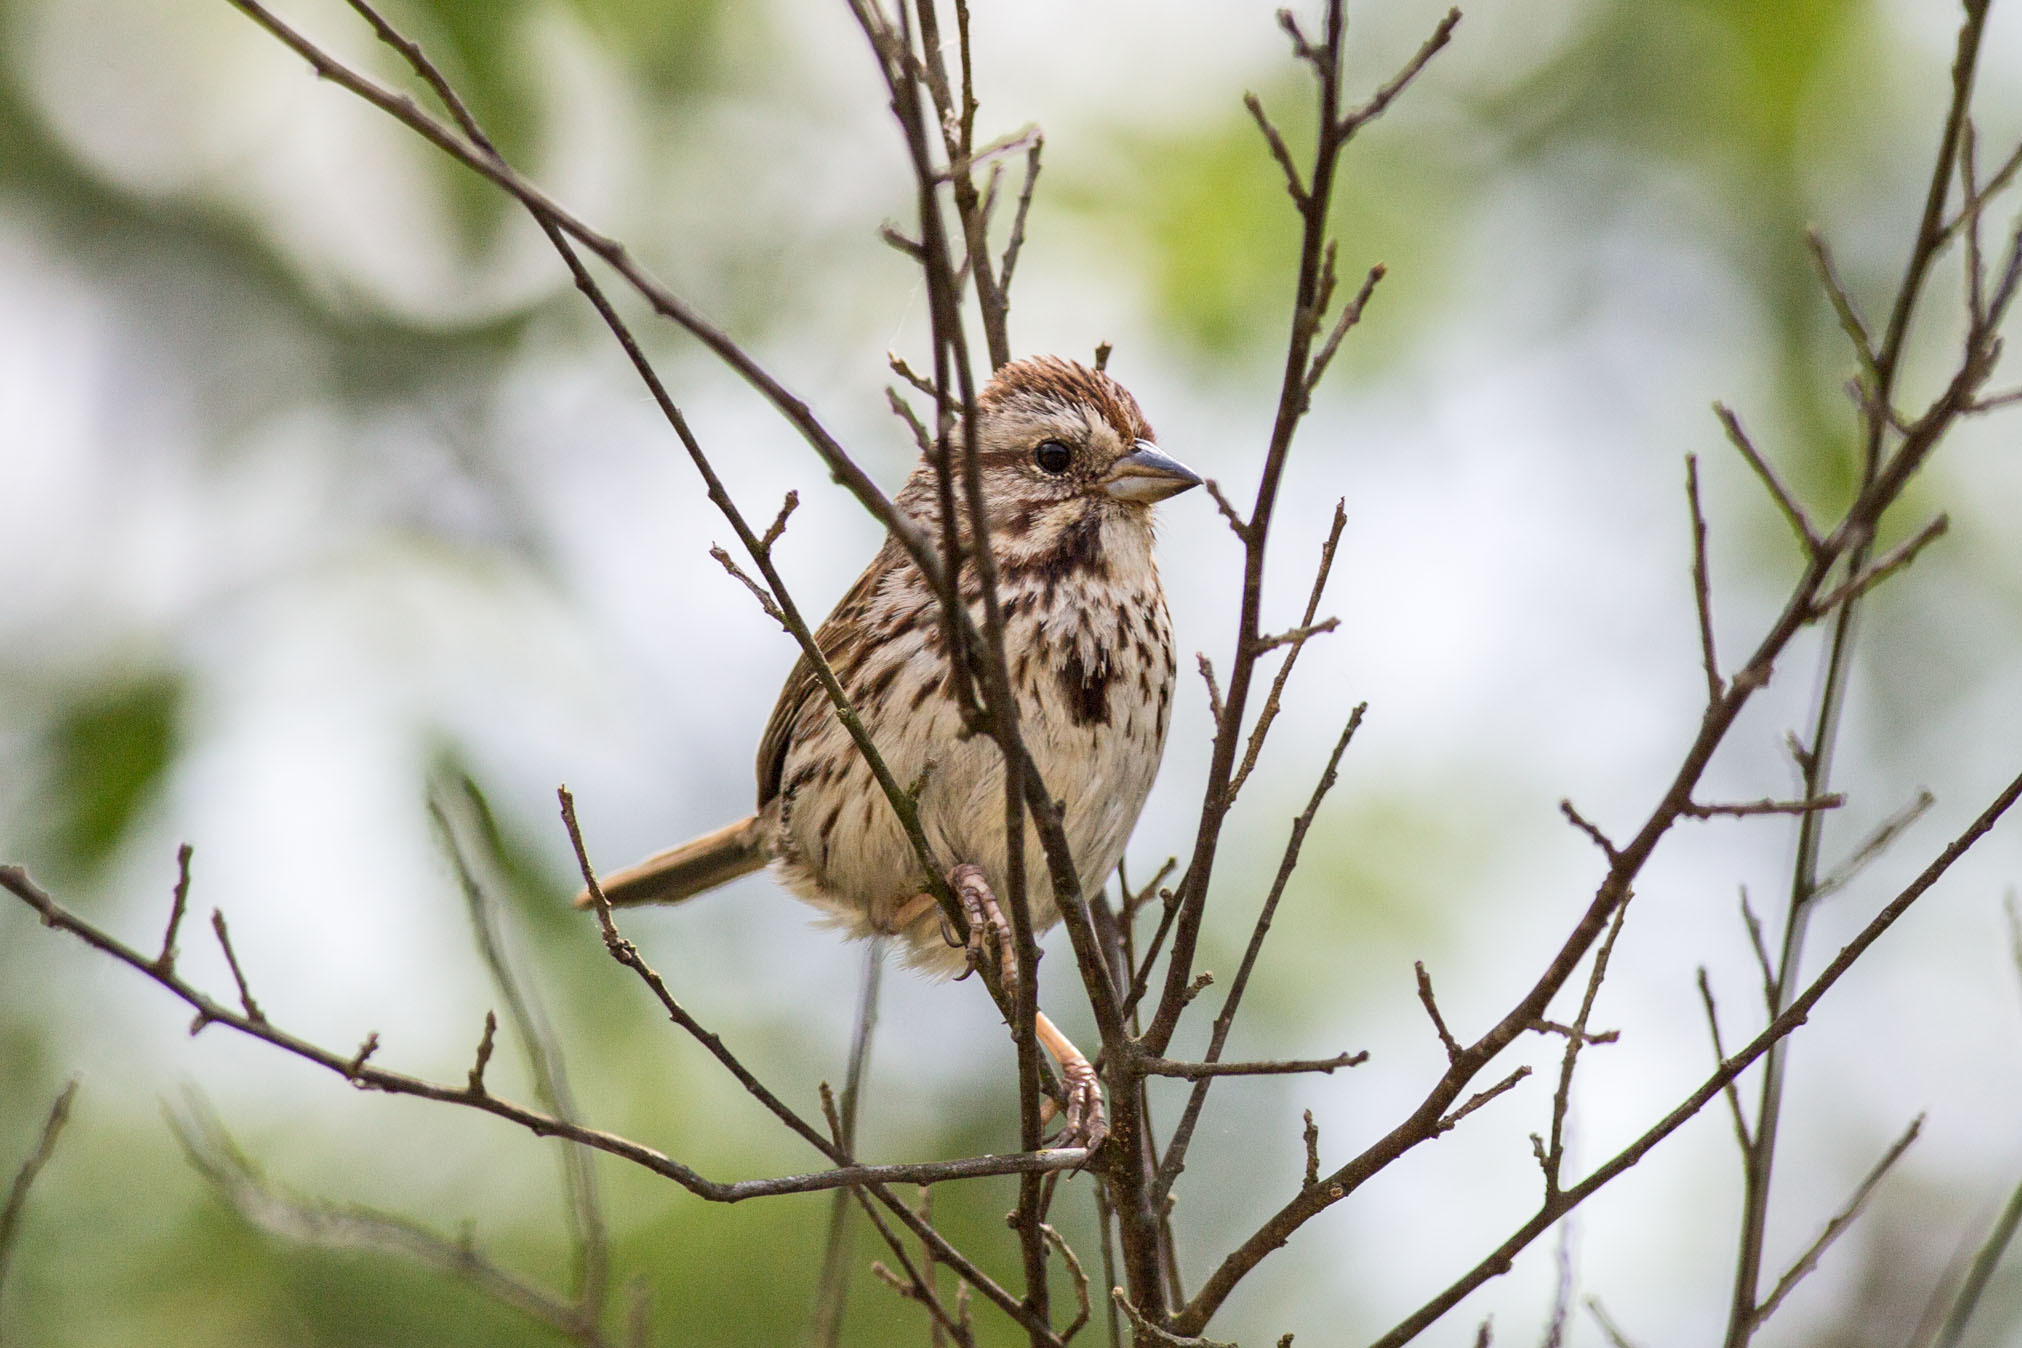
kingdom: Animalia
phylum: Chordata
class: Aves
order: Passeriformes
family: Passerellidae
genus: Melospiza
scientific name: Melospiza melodia
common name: Song sparrow
